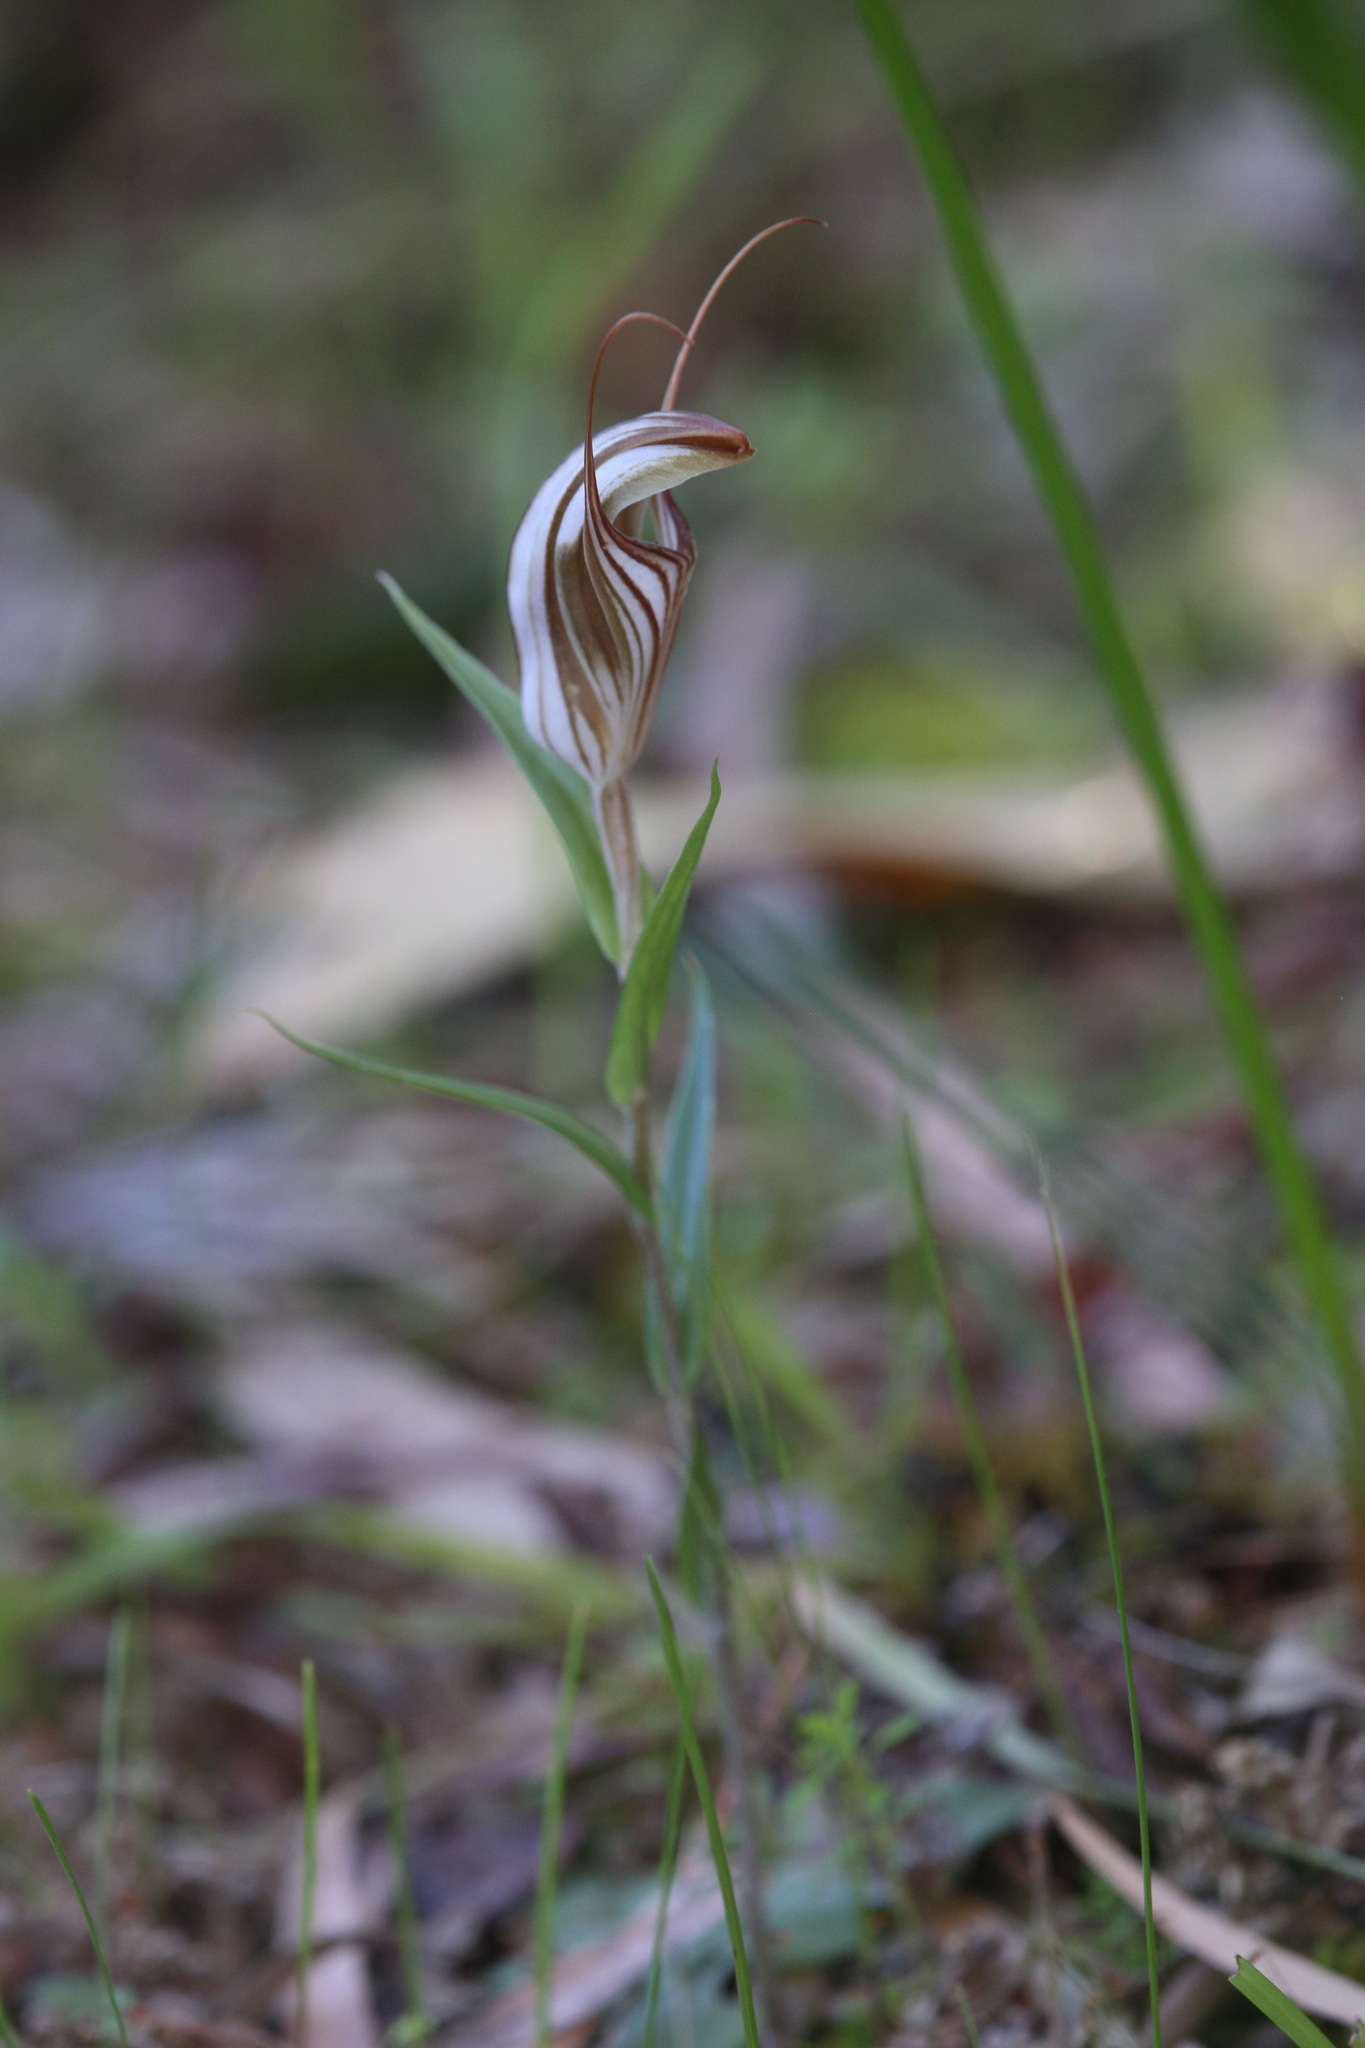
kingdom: Plantae
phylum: Tracheophyta
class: Liliopsida
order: Asparagales
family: Orchidaceae
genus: Pterostylis
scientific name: Pterostylis aspera
